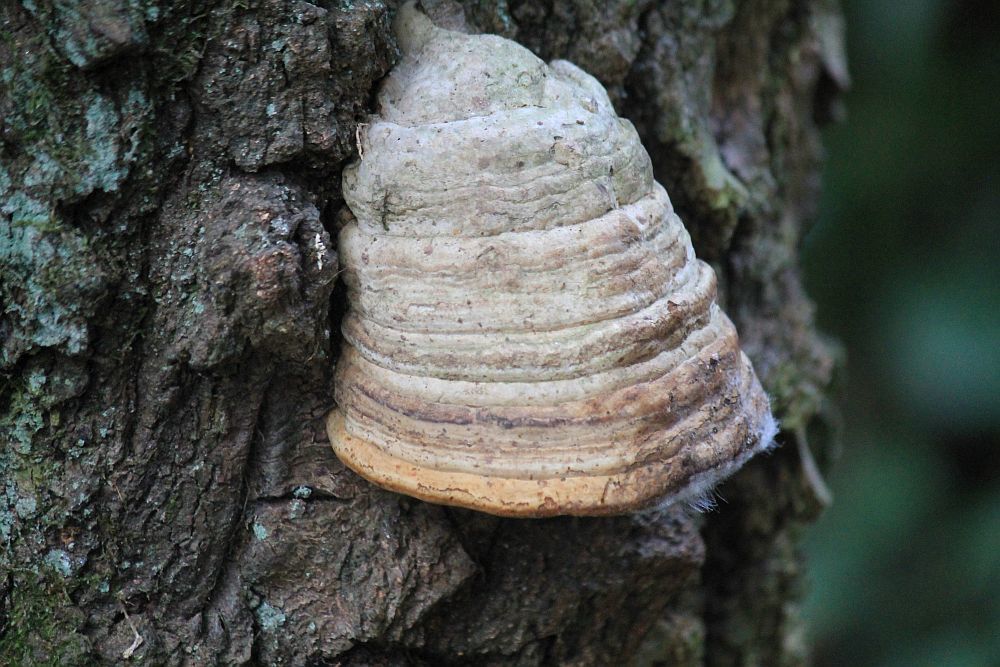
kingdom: Fungi
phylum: Basidiomycota
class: Agaricomycetes
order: Polyporales
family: Polyporaceae
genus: Fomes
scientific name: Fomes fomentarius
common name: Hoof fungus
